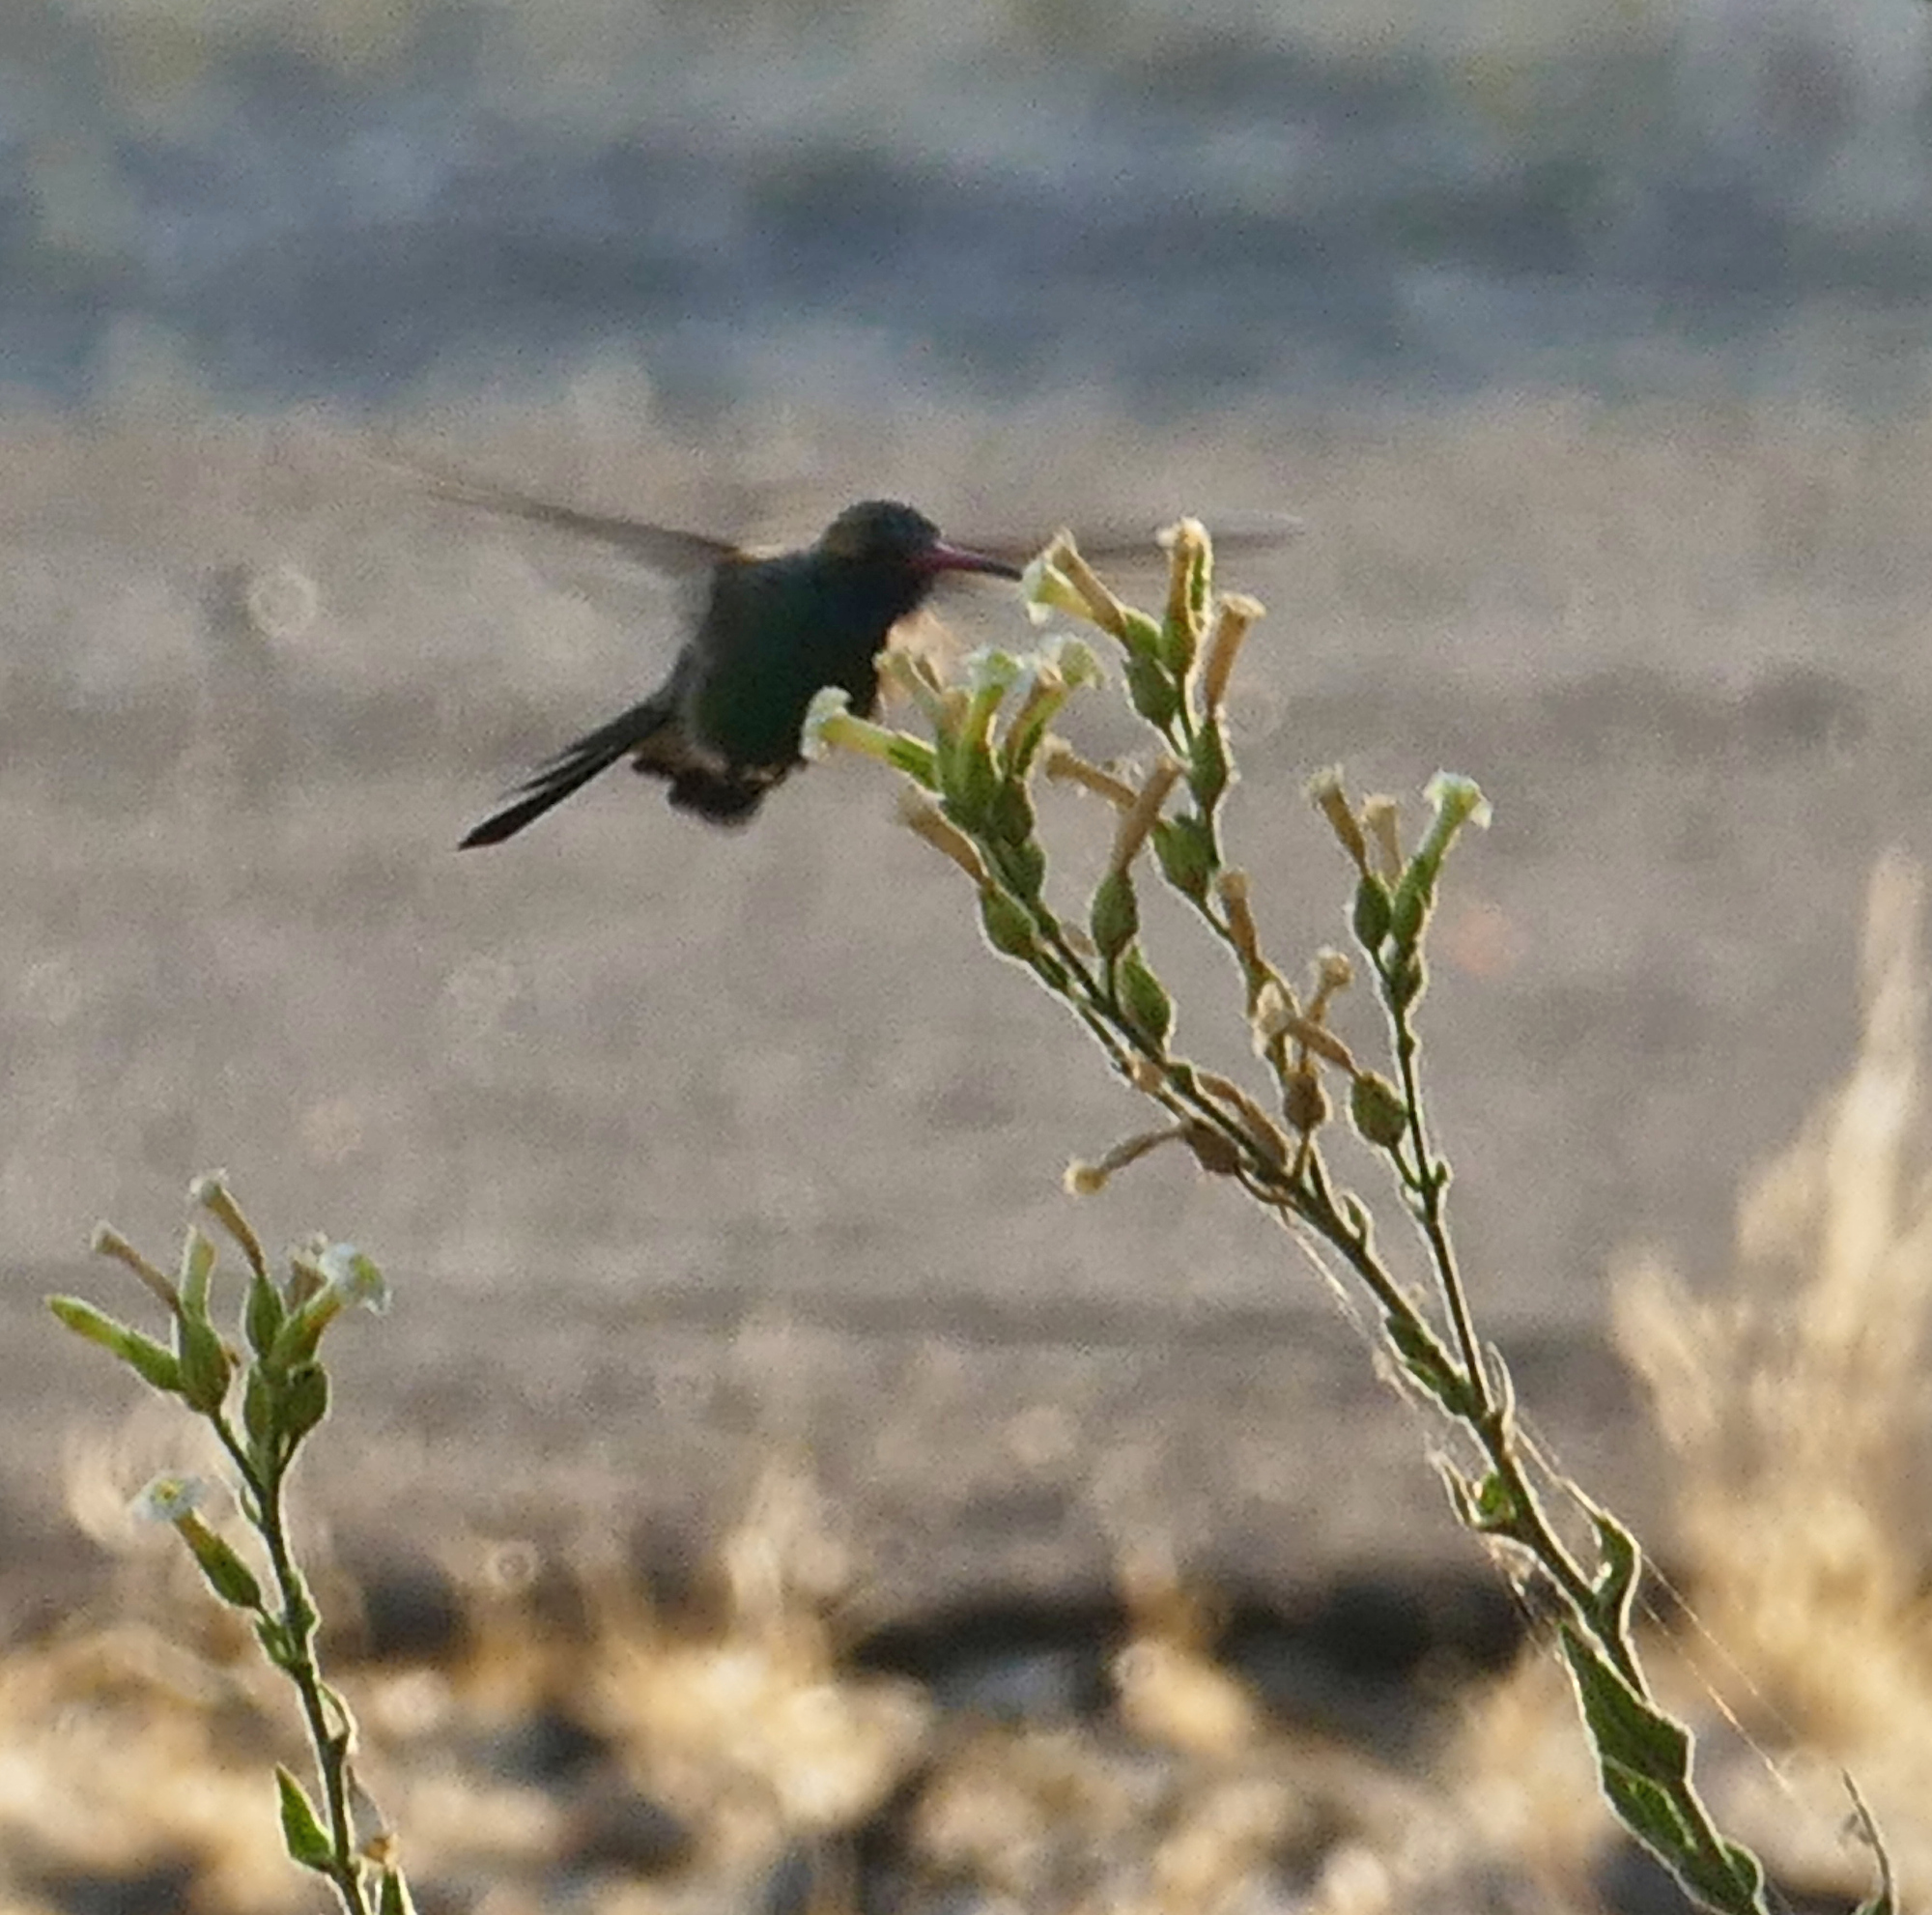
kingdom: Animalia
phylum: Chordata
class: Aves
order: Apodiformes
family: Trochilidae
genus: Cynanthus
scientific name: Cynanthus latirostris
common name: Broad-billed hummingbird
